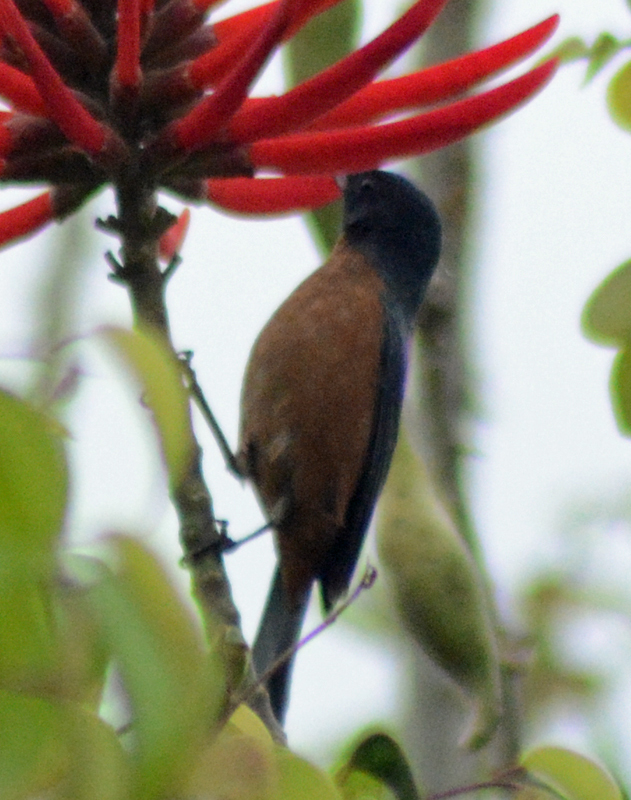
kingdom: Animalia
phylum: Chordata
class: Aves
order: Passeriformes
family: Thraupidae
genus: Diglossa
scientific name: Diglossa baritula
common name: Cinnamon-bellied flowerpiercer
